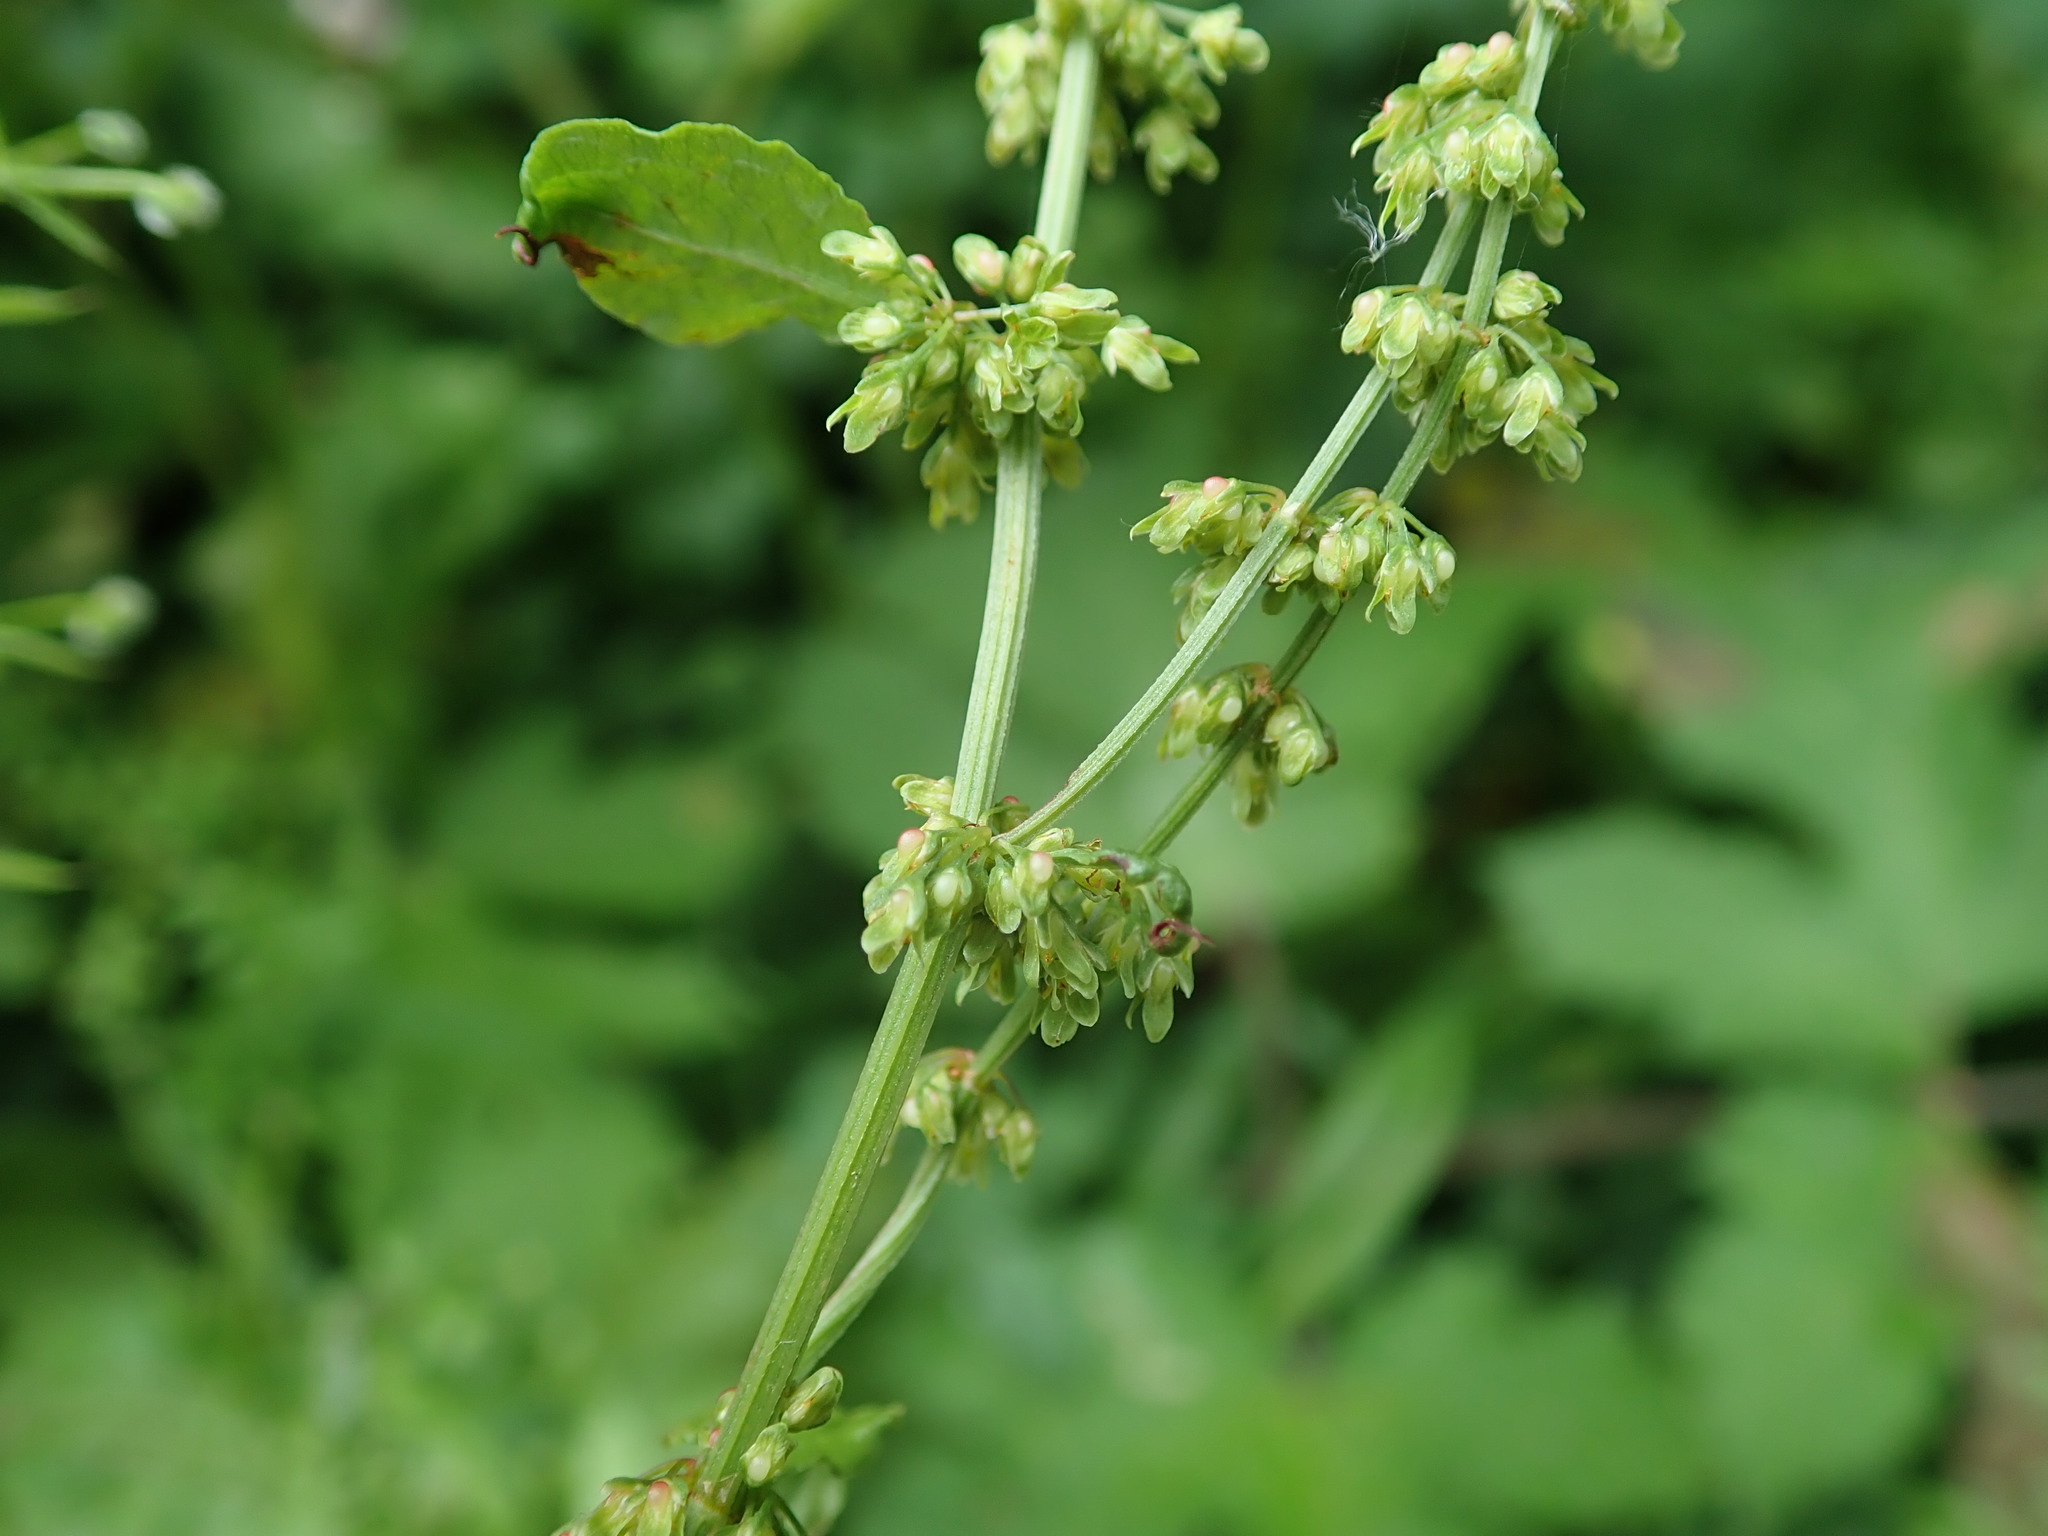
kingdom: Plantae
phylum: Tracheophyta
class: Magnoliopsida
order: Caryophyllales
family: Polygonaceae
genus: Rumex
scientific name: Rumex sanguineus
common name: Wood dock
